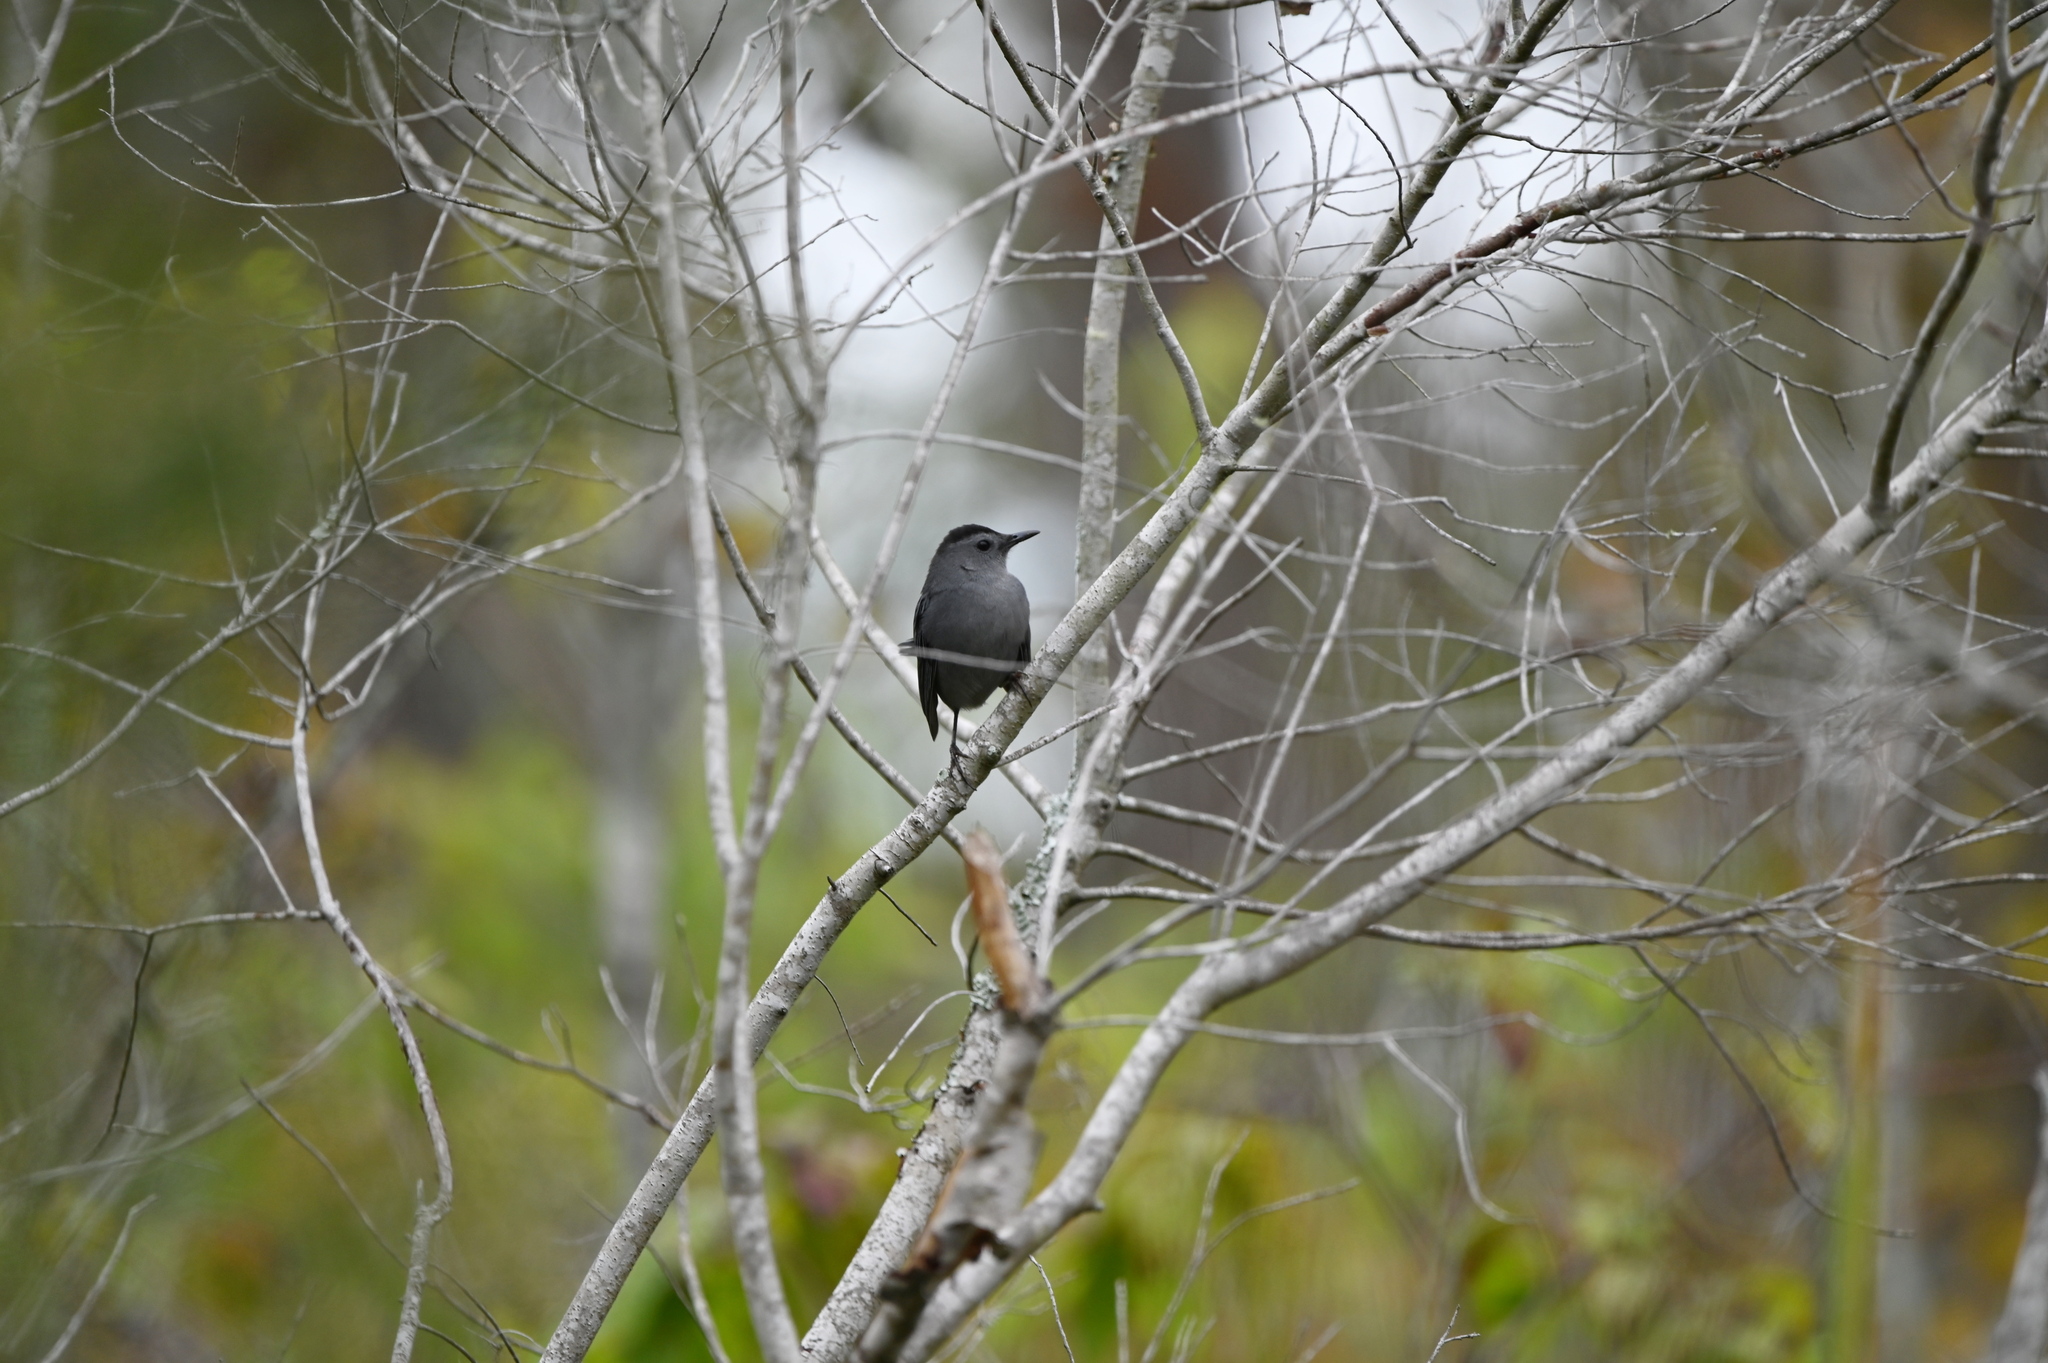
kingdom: Animalia
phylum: Chordata
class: Aves
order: Passeriformes
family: Mimidae
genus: Dumetella
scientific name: Dumetella carolinensis
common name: Gray catbird
